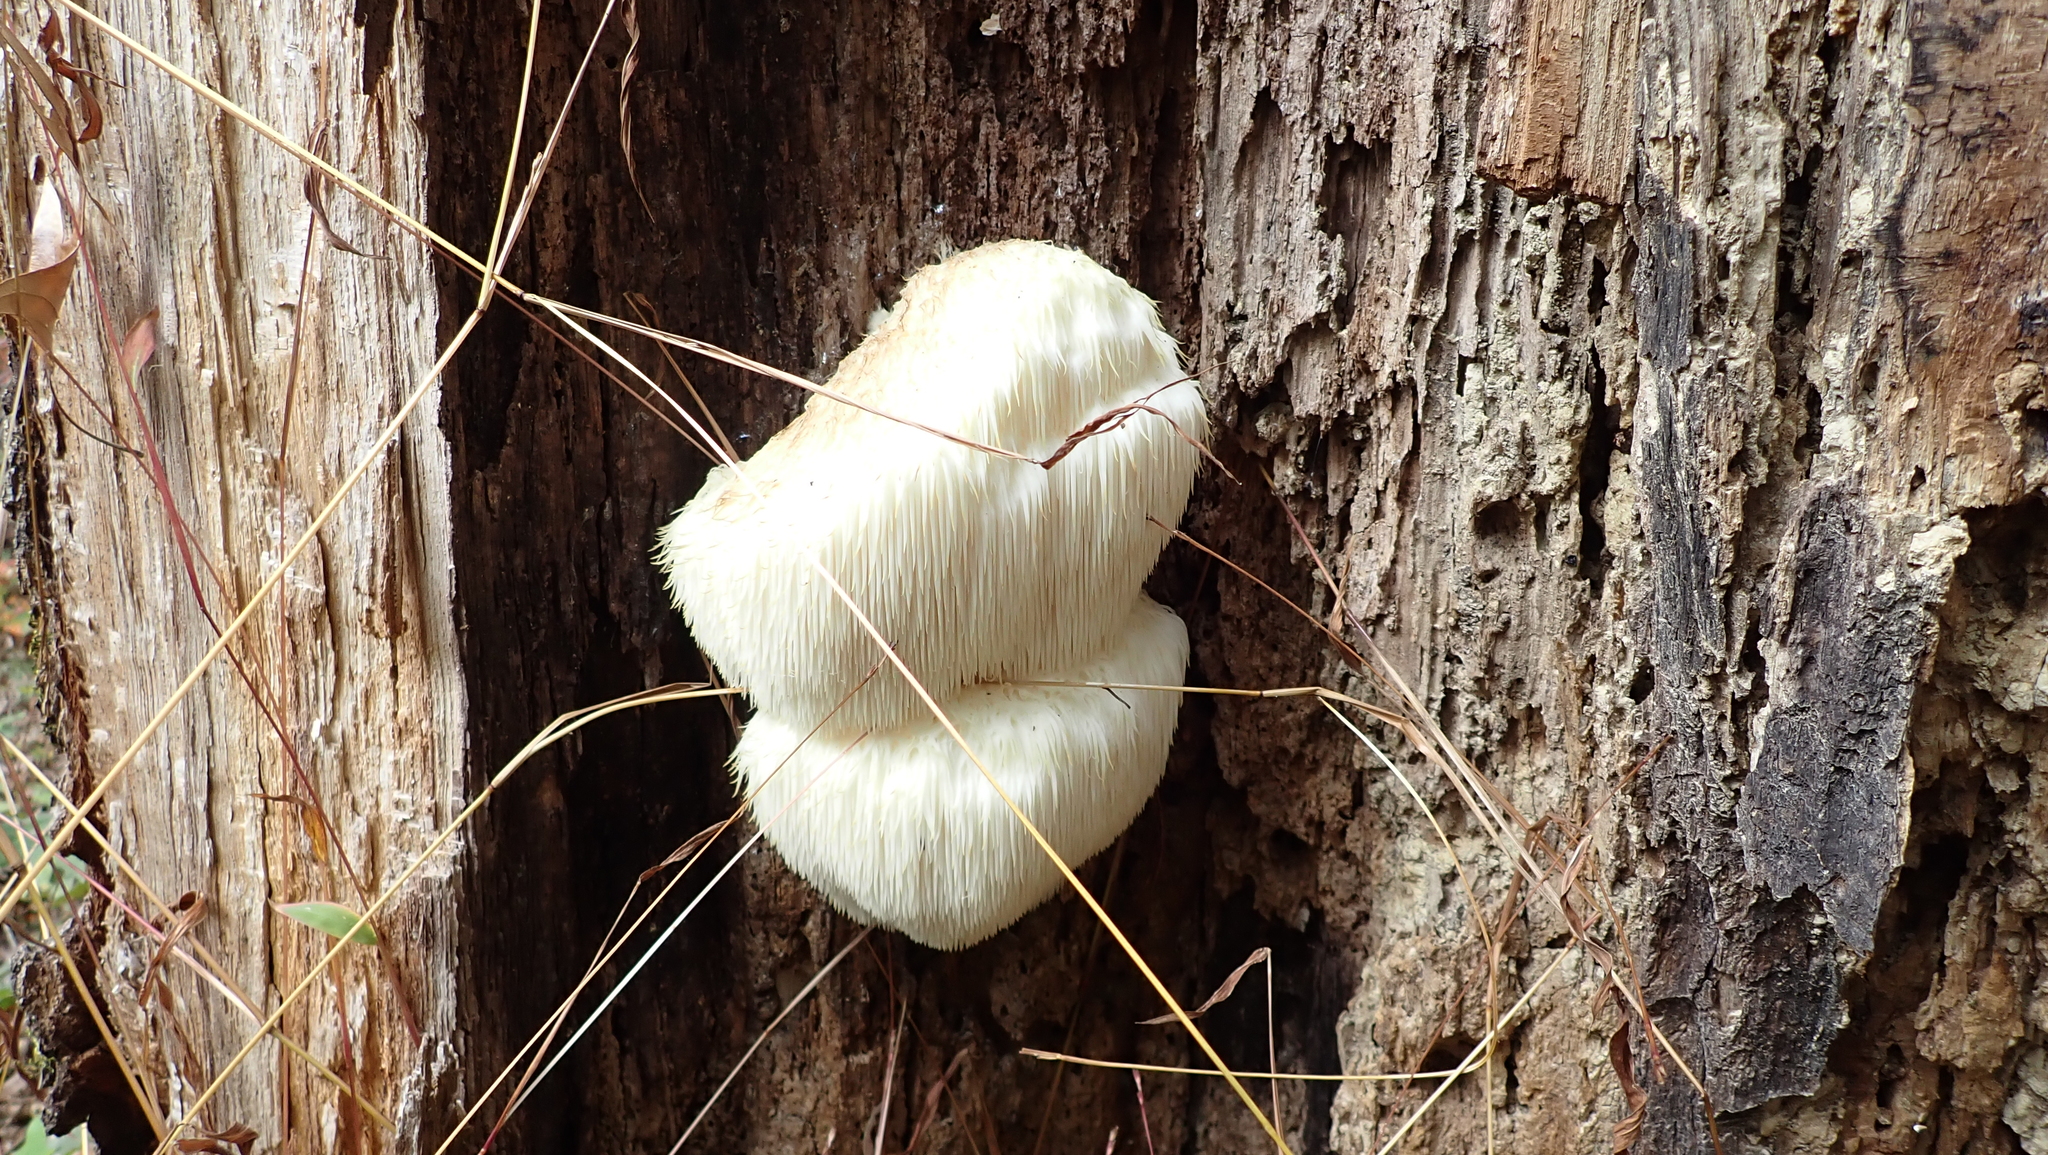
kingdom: Fungi
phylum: Basidiomycota
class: Agaricomycetes
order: Russulales
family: Hericiaceae
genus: Hericium
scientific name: Hericium erinaceus
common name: Bearded tooth
